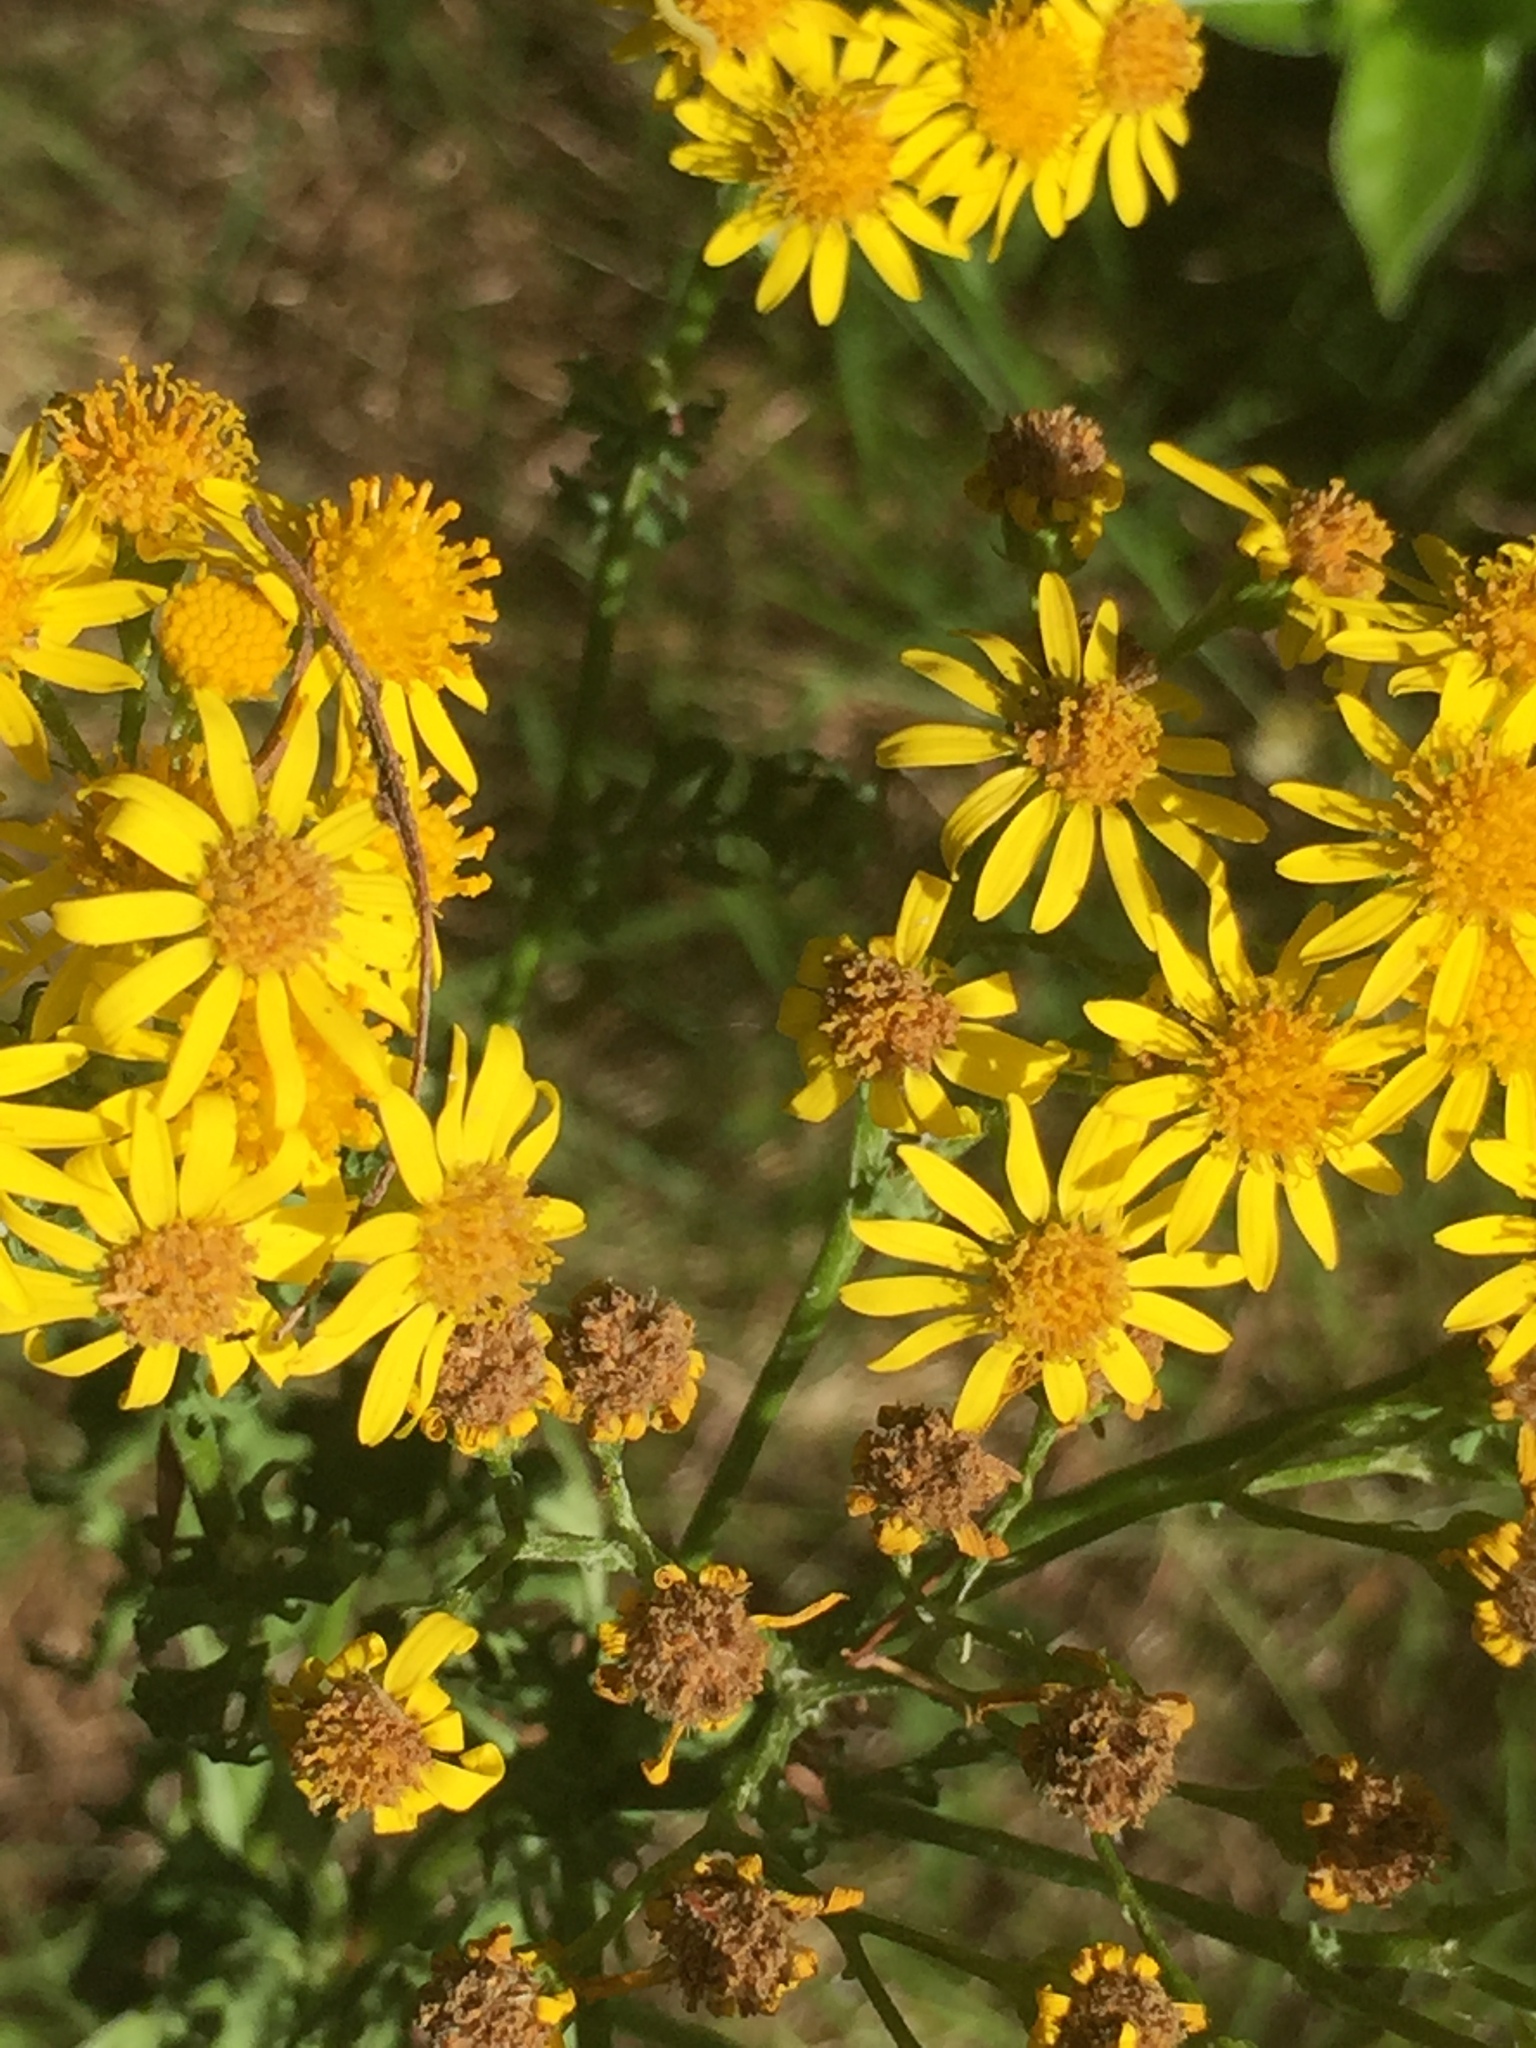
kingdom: Plantae
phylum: Tracheophyta
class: Magnoliopsida
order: Asterales
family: Asteraceae
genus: Jacobaea
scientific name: Jacobaea vulgaris
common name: Stinking willie
